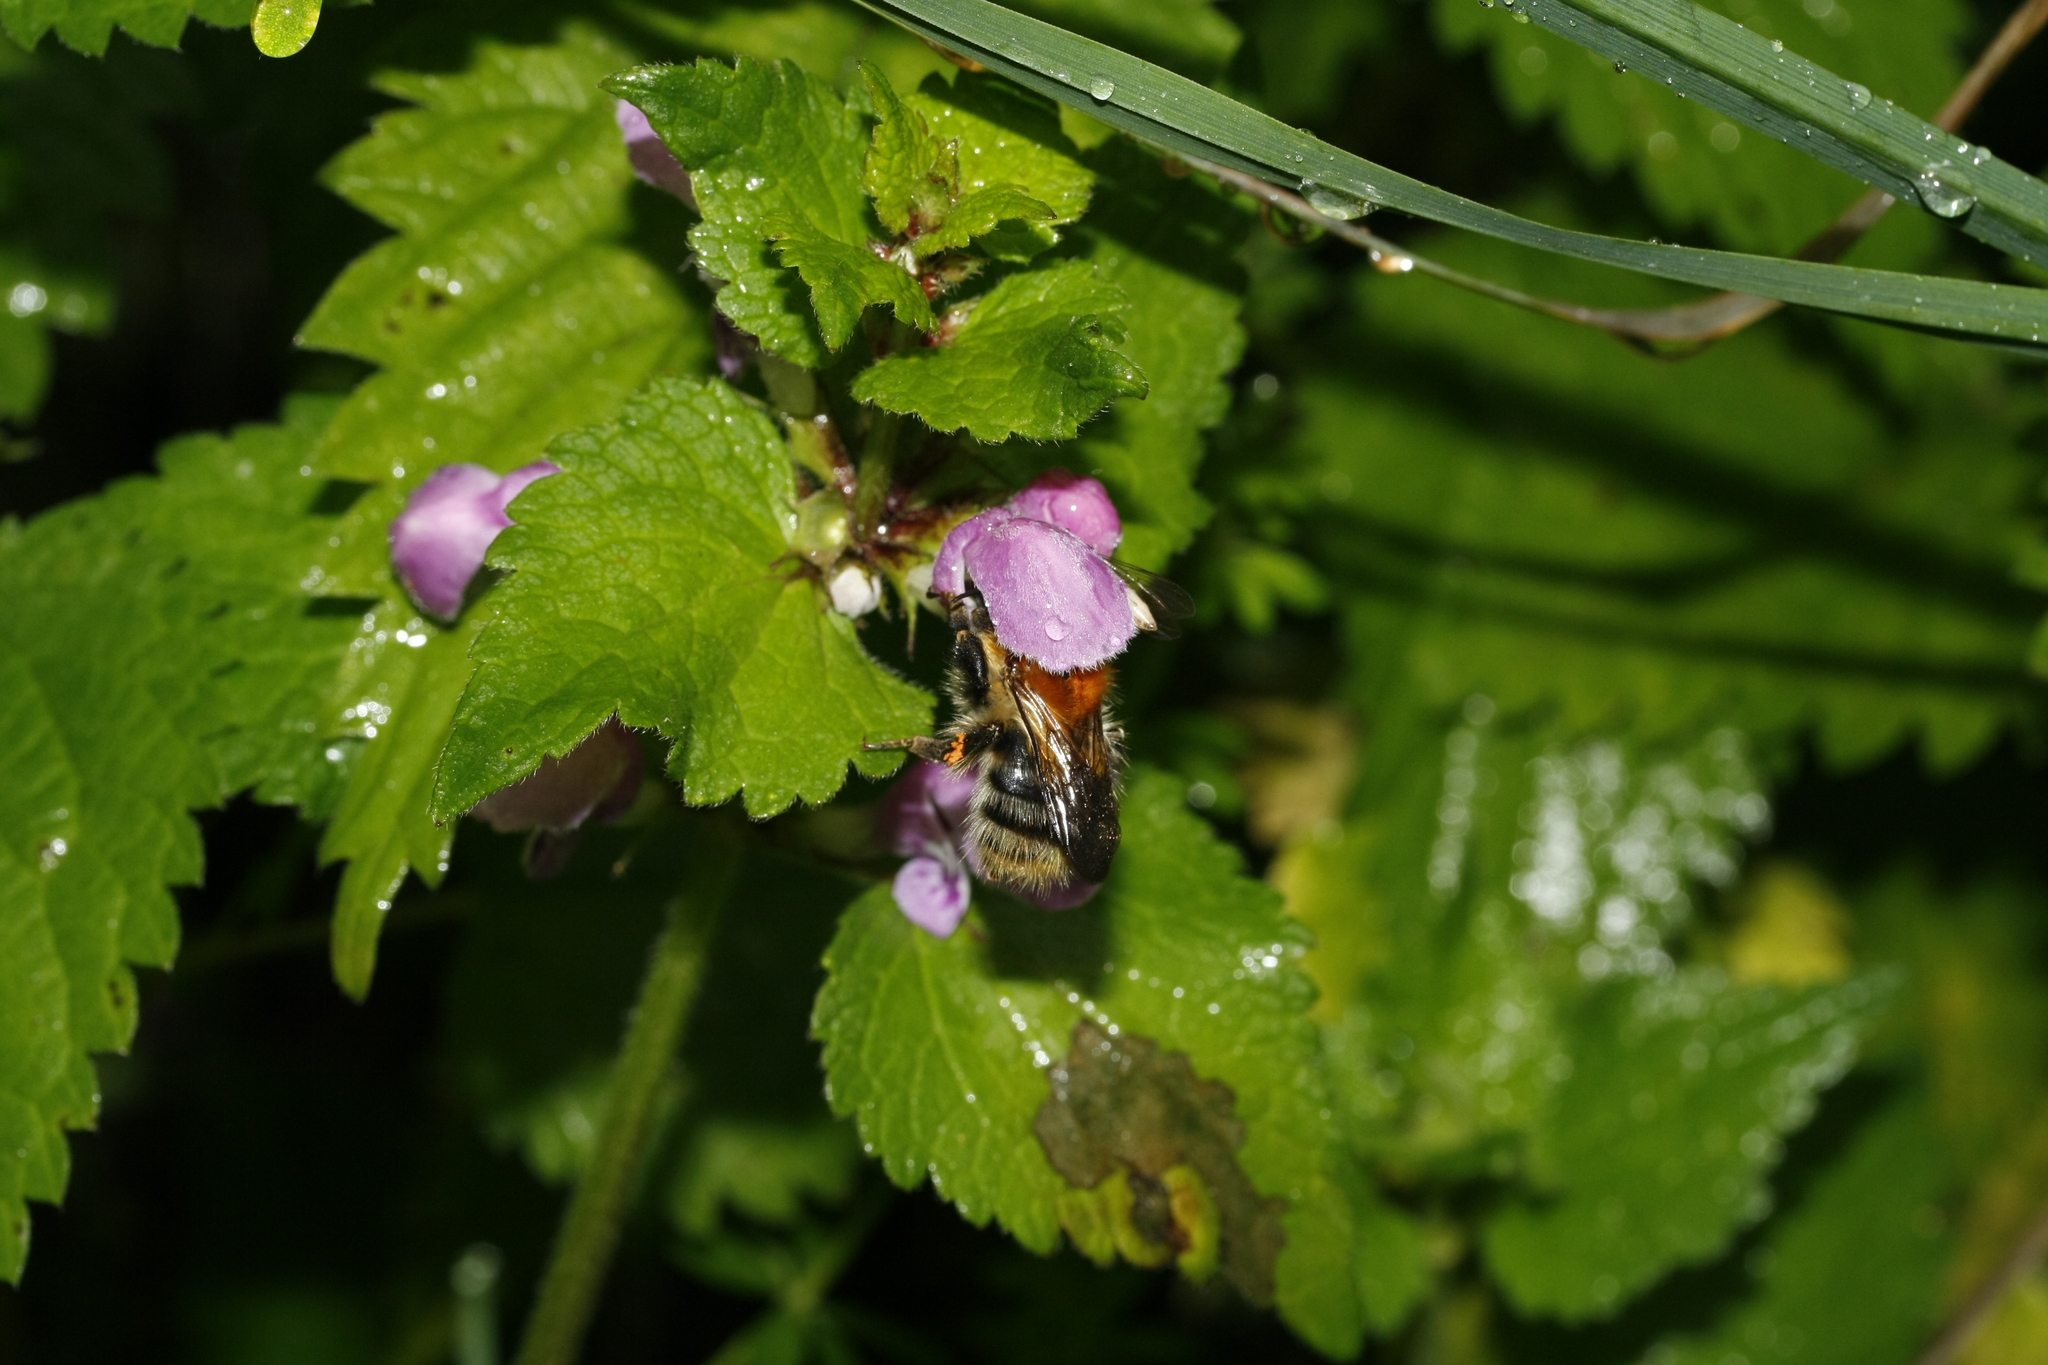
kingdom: Animalia
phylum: Arthropoda
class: Insecta
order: Hymenoptera
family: Apidae
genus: Bombus
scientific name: Bombus pascuorum
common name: Common carder bee
